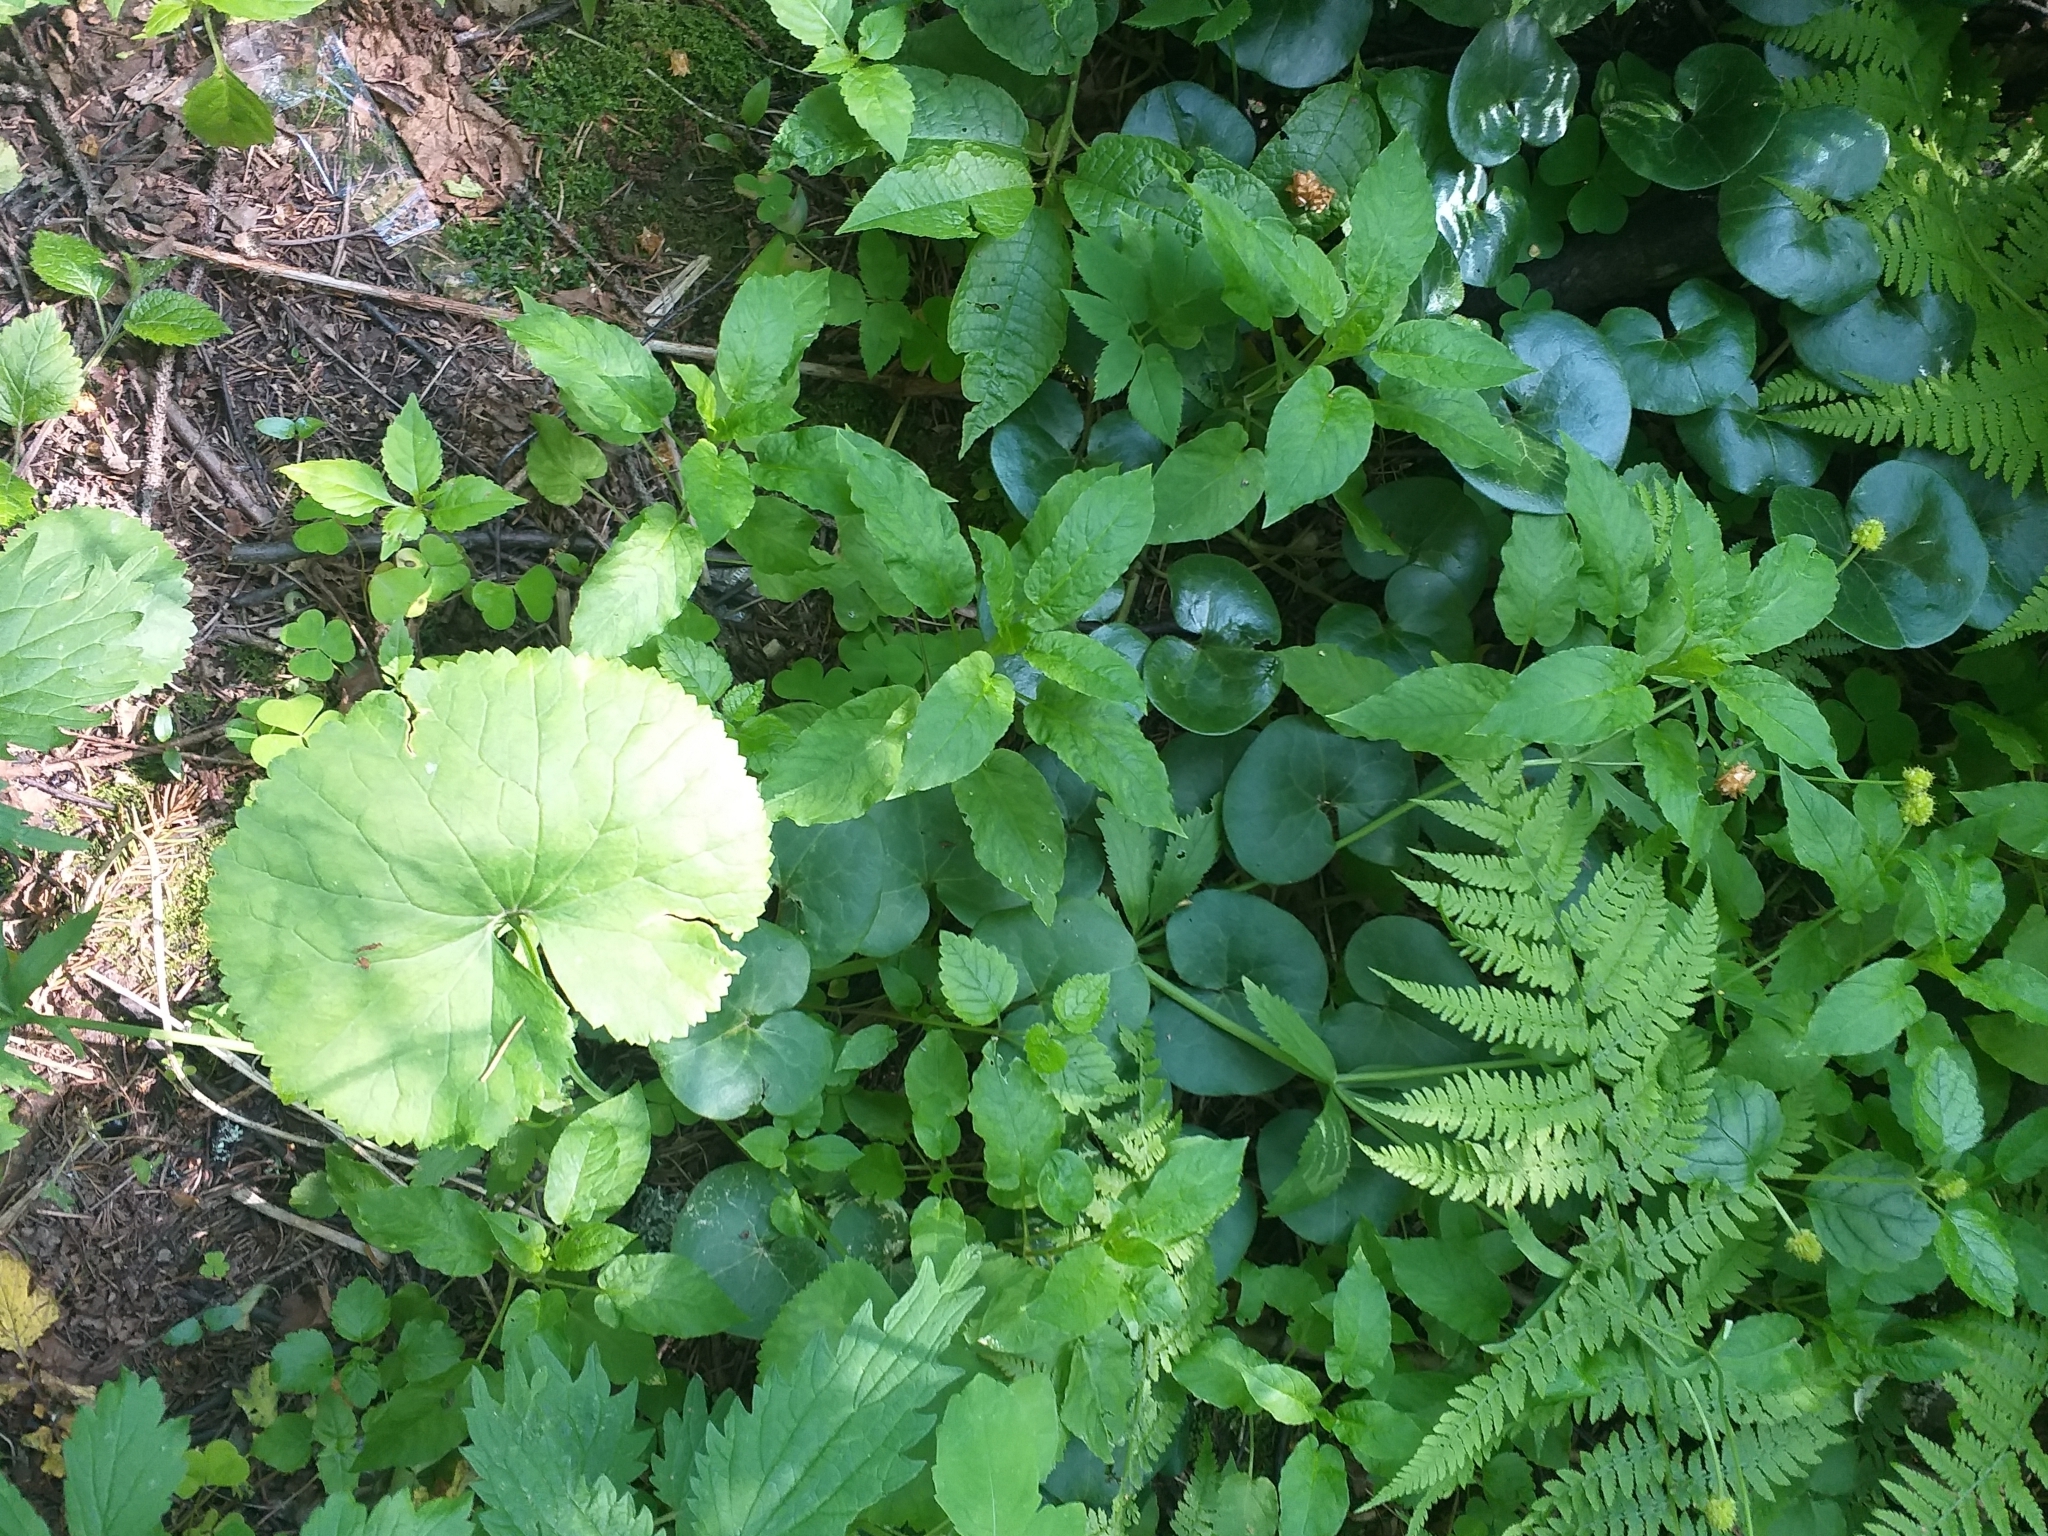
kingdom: Plantae
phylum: Tracheophyta
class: Magnoliopsida
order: Ranunculales
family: Ranunculaceae
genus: Ranunculus
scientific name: Ranunculus cassubicus
